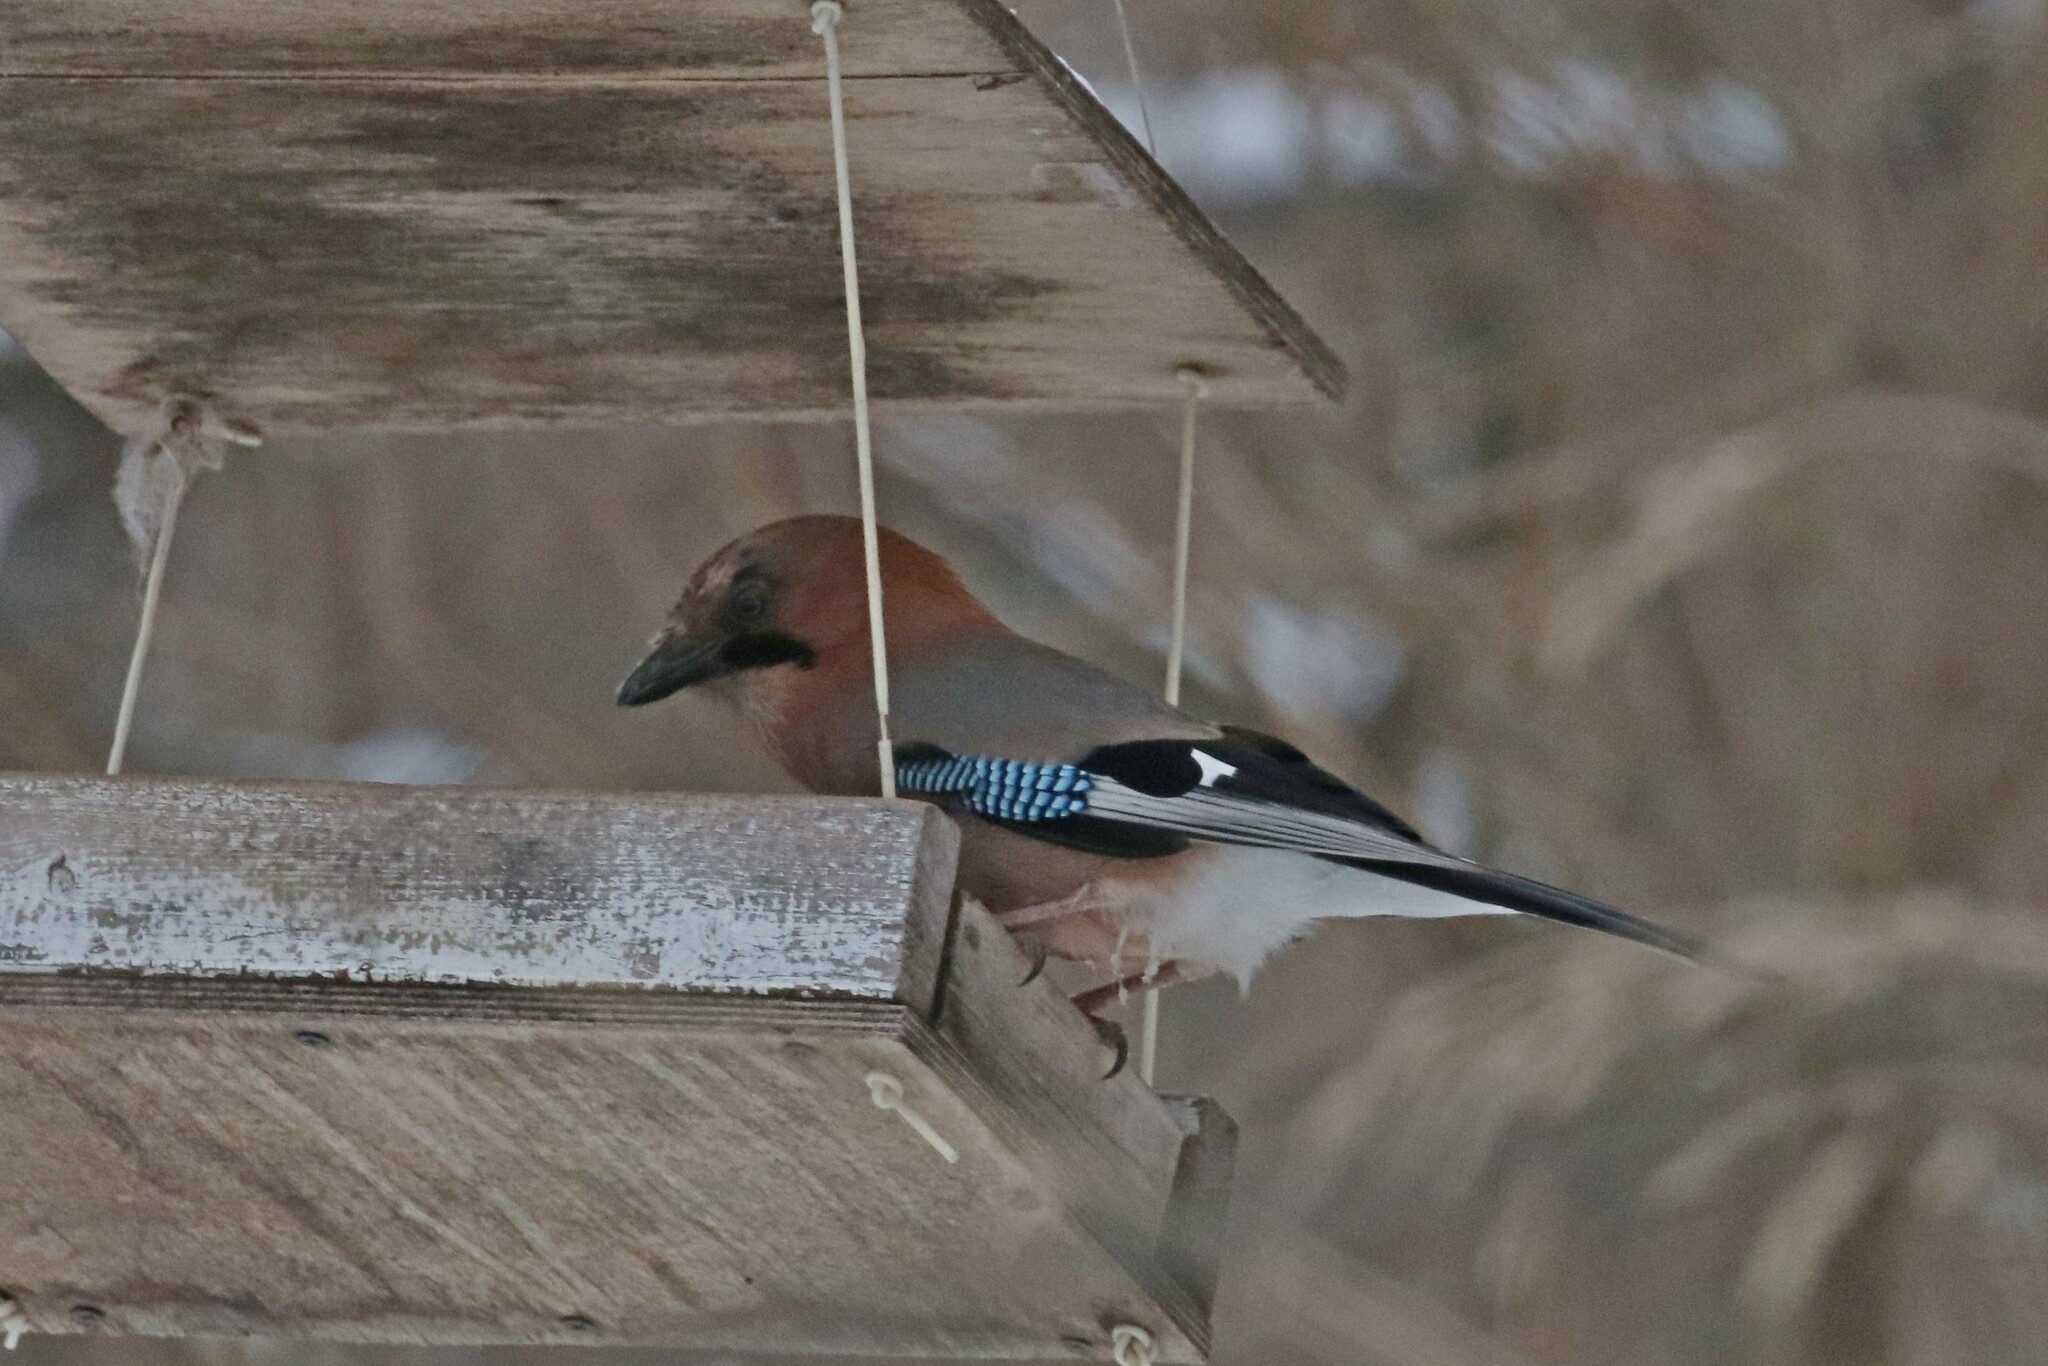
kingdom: Animalia
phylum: Chordata
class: Aves
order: Passeriformes
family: Corvidae
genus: Garrulus
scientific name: Garrulus glandarius
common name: Eurasian jay
